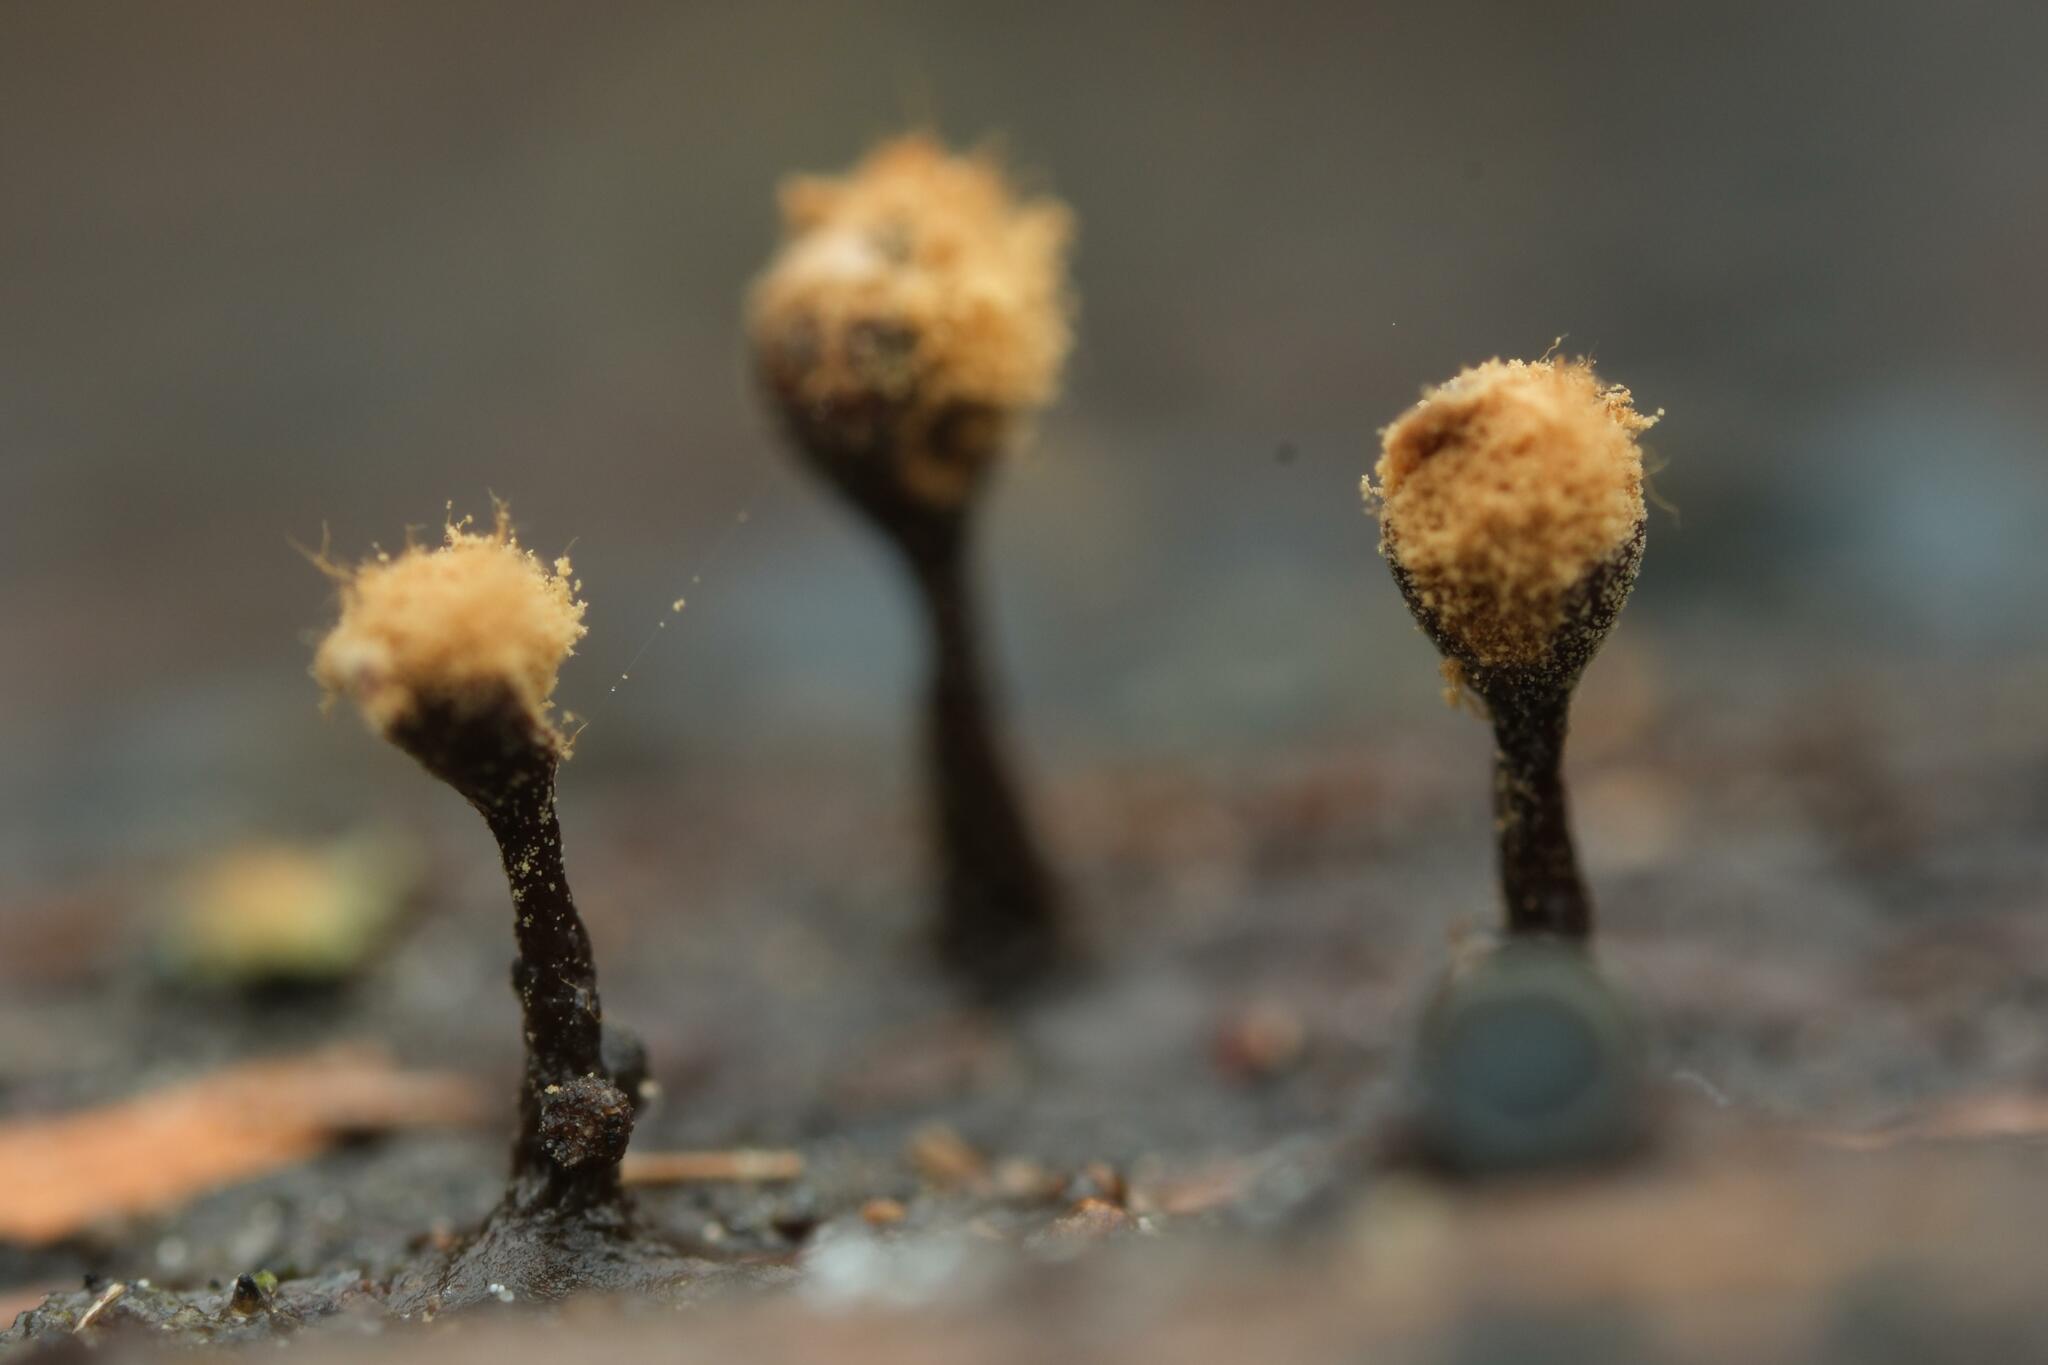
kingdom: Protozoa
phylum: Mycetozoa
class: Myxomycetes
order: Trichiales
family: Trichiaceae
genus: Trichia
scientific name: Trichia botrytis
